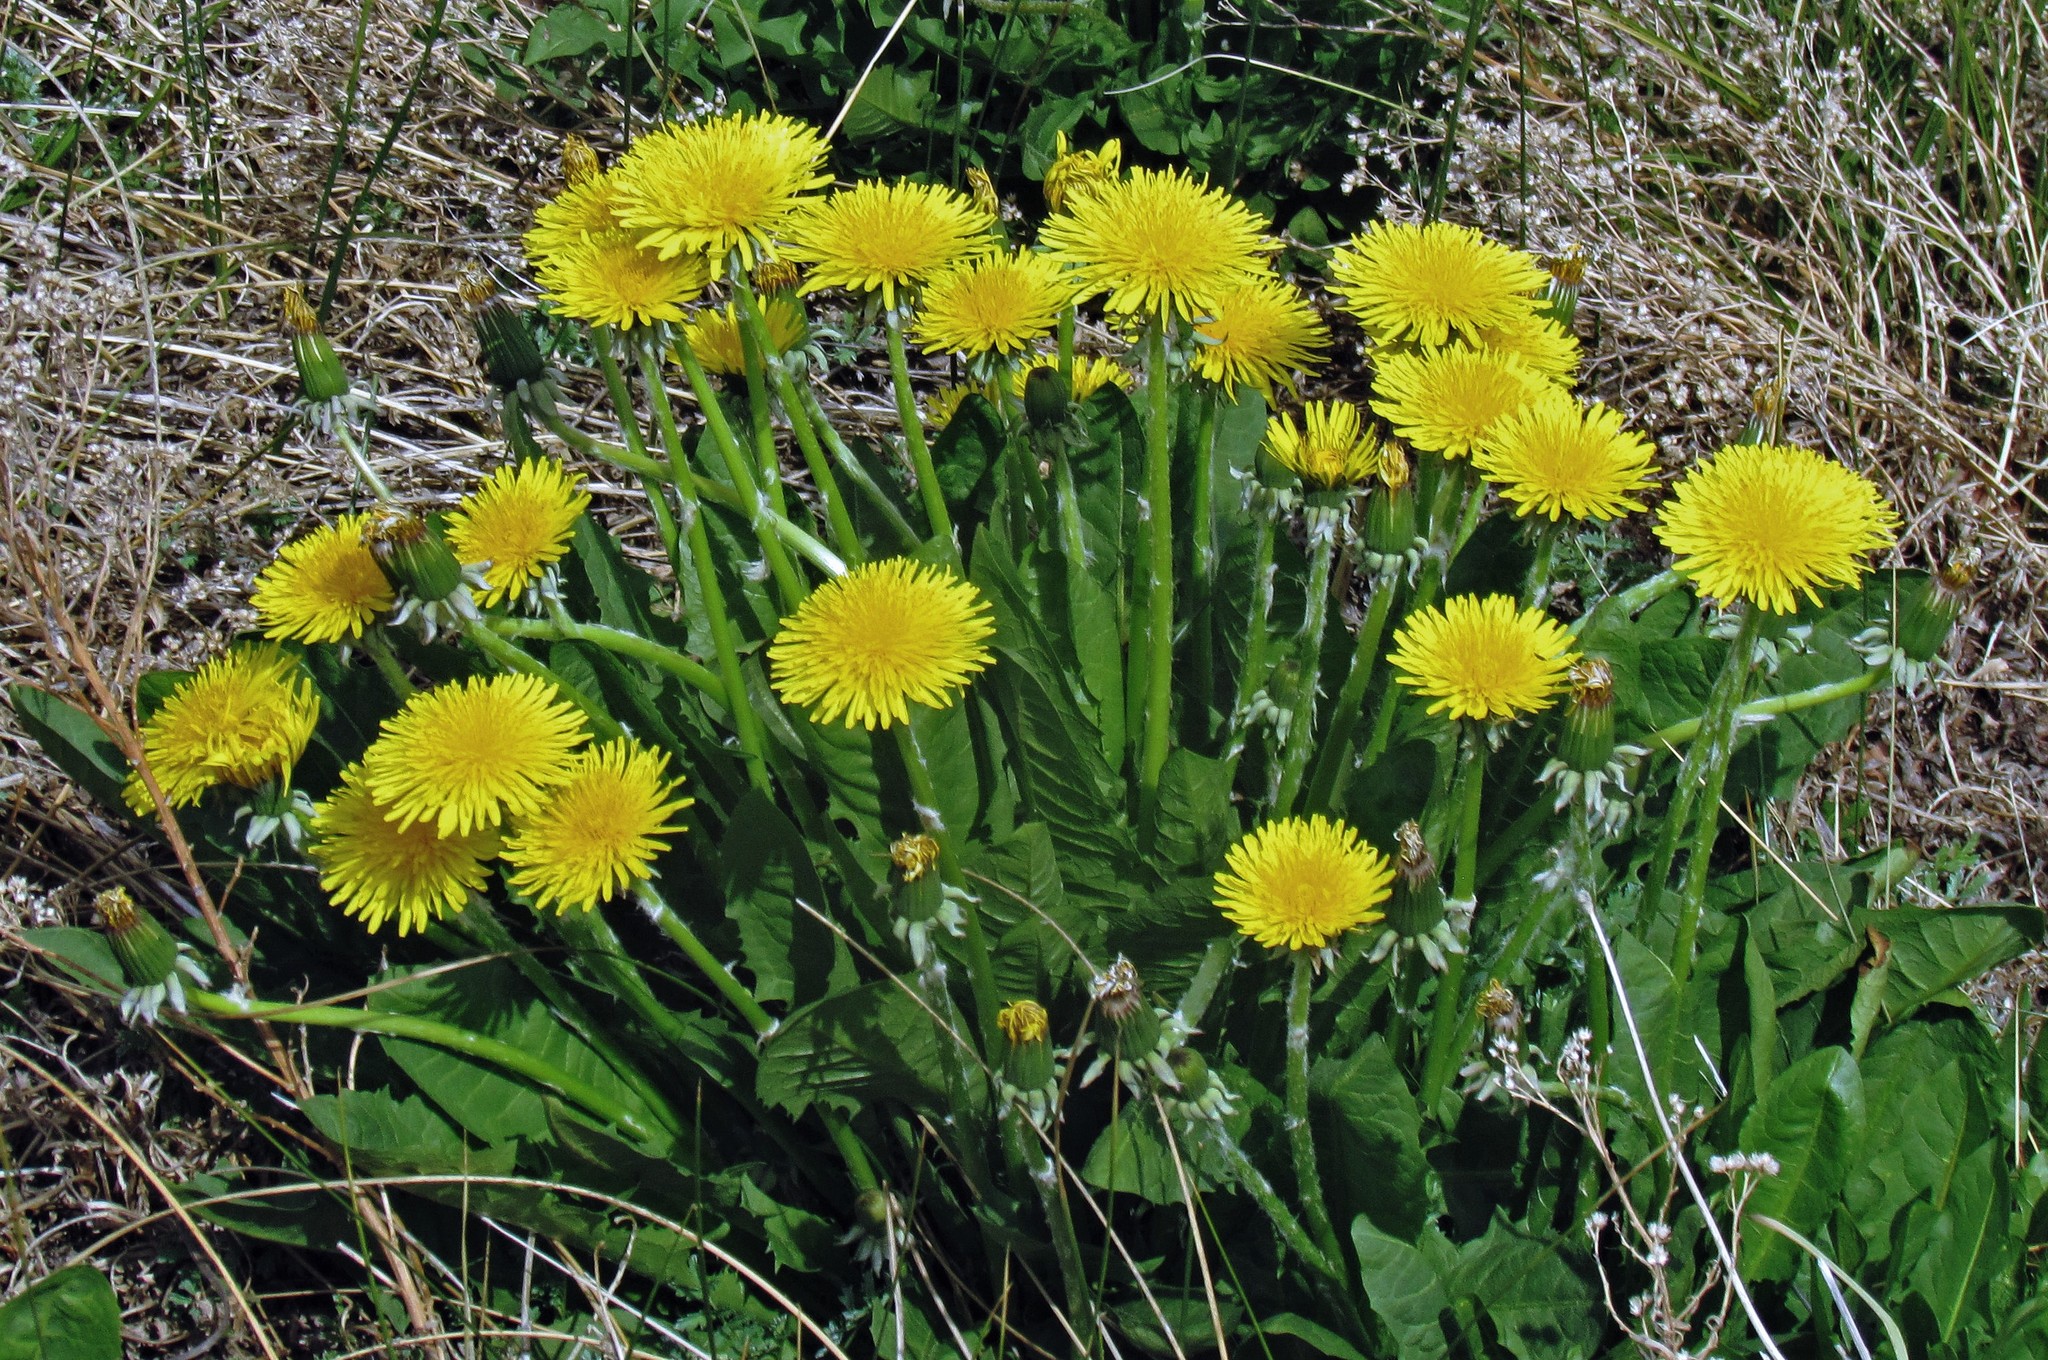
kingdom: Plantae
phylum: Tracheophyta
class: Magnoliopsida
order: Asterales
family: Asteraceae
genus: Taraxacum
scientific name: Taraxacum officinale
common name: Common dandelion
